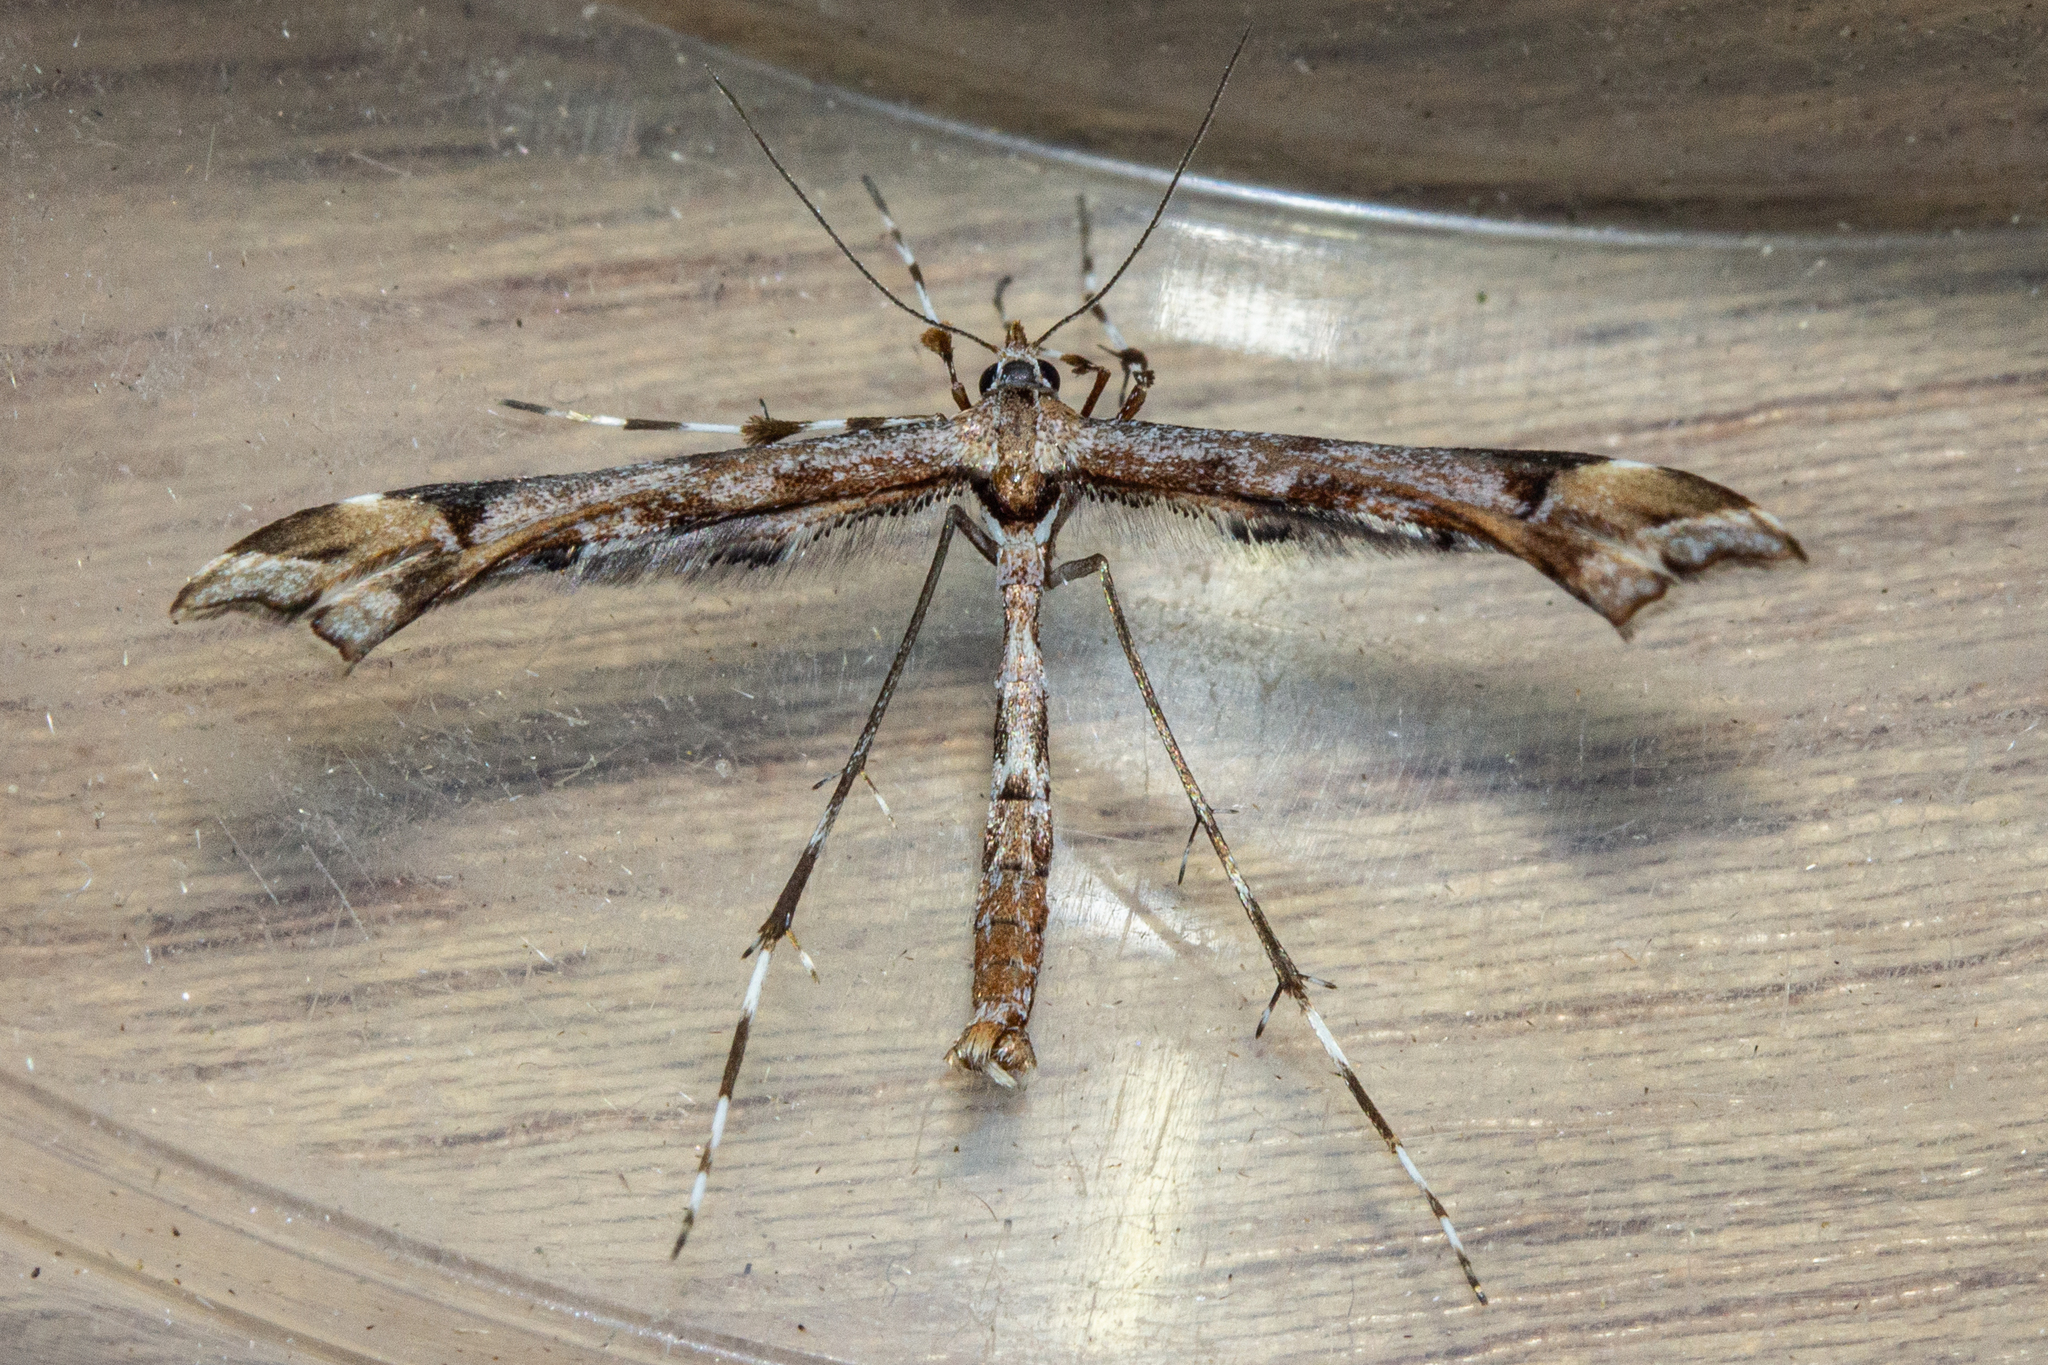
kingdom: Animalia
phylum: Arthropoda
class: Insecta
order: Lepidoptera
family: Pterophoridae
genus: Amblyptilia
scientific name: Amblyptilia falcatalis
